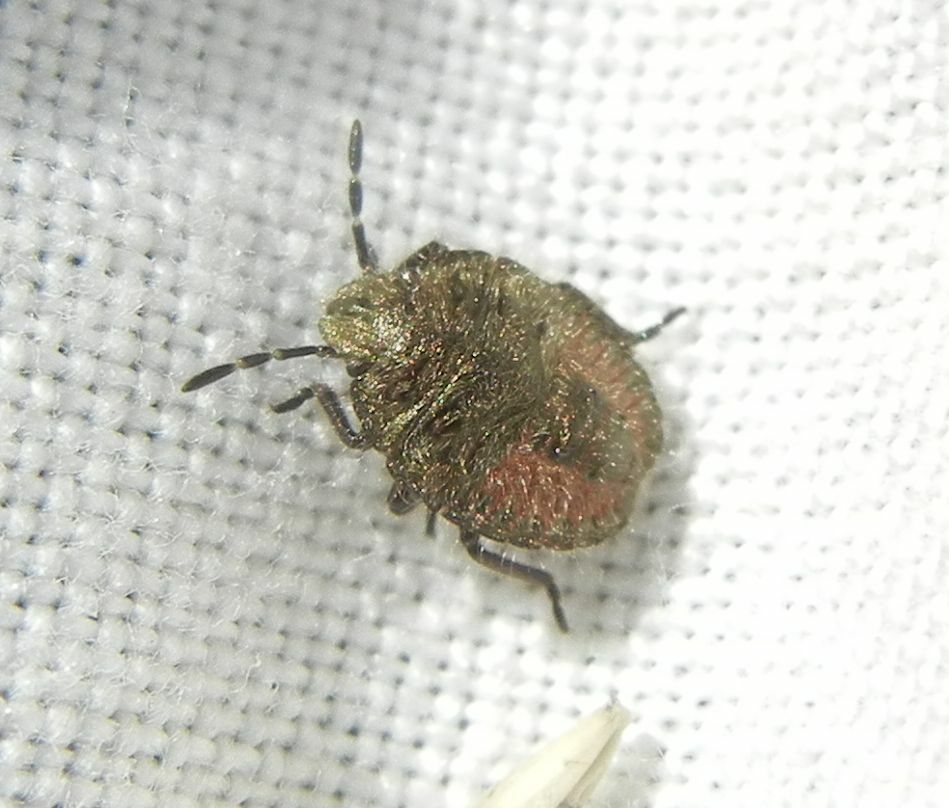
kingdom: Animalia
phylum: Arthropoda
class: Insecta
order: Hemiptera
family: Pentatomidae
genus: Dolycoris
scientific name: Dolycoris baccarum
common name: Sloe bug
